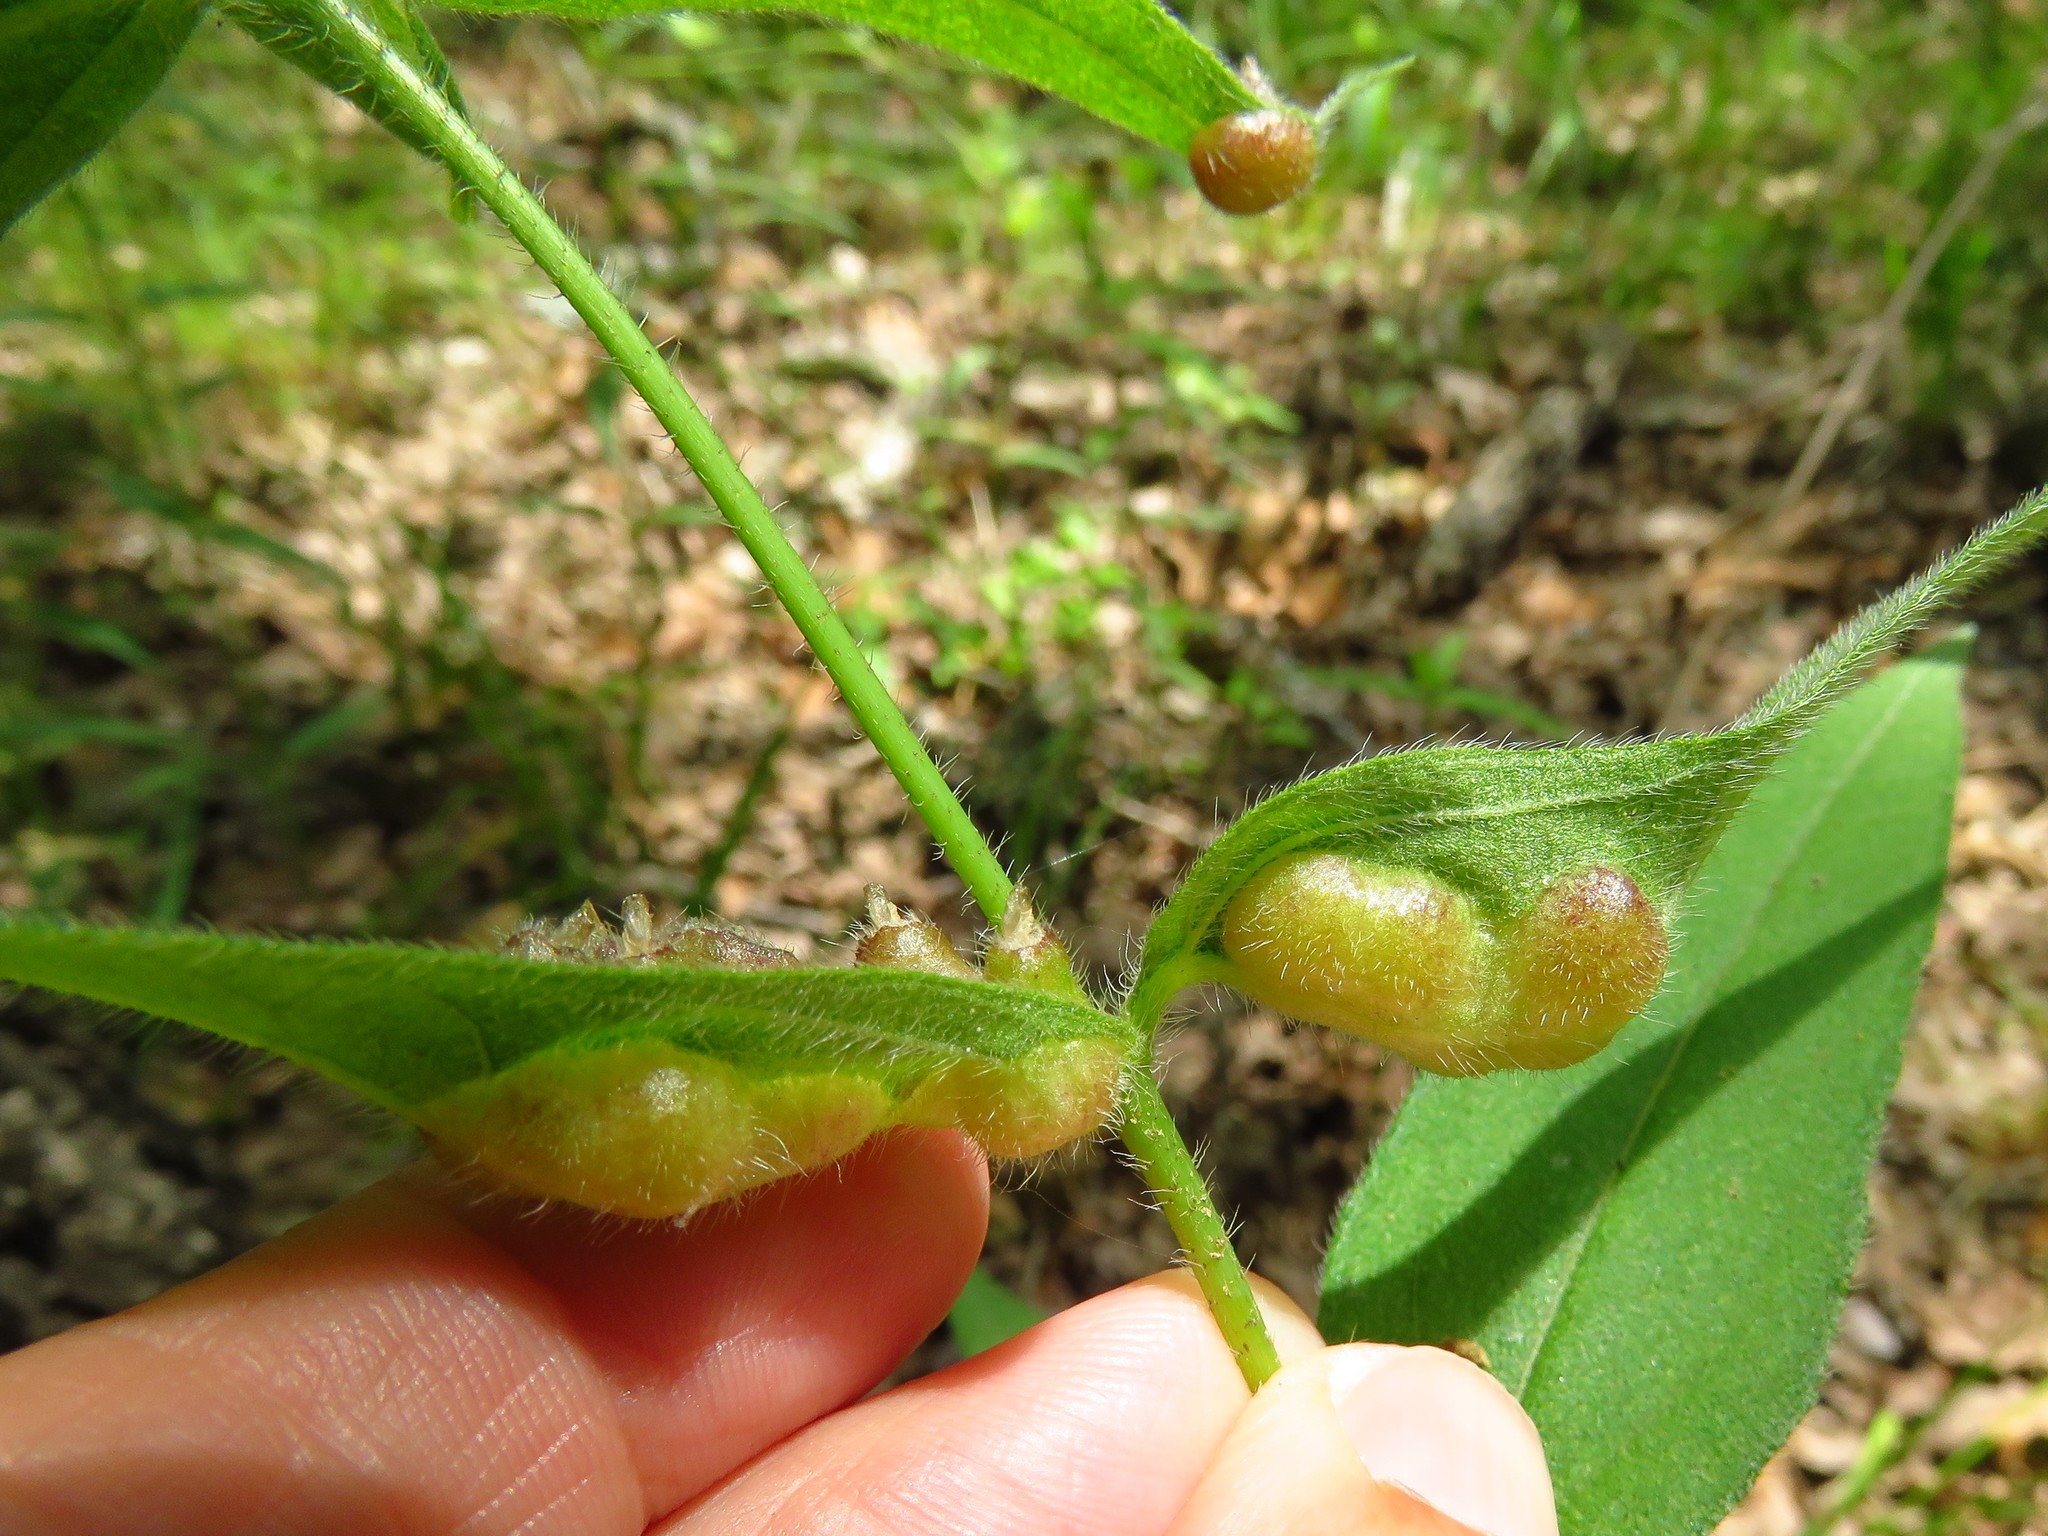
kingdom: Animalia
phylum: Arthropoda
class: Insecta
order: Diptera
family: Cecidomyiidae
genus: Pilodiplosis
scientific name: Pilodiplosis helianthibulla
